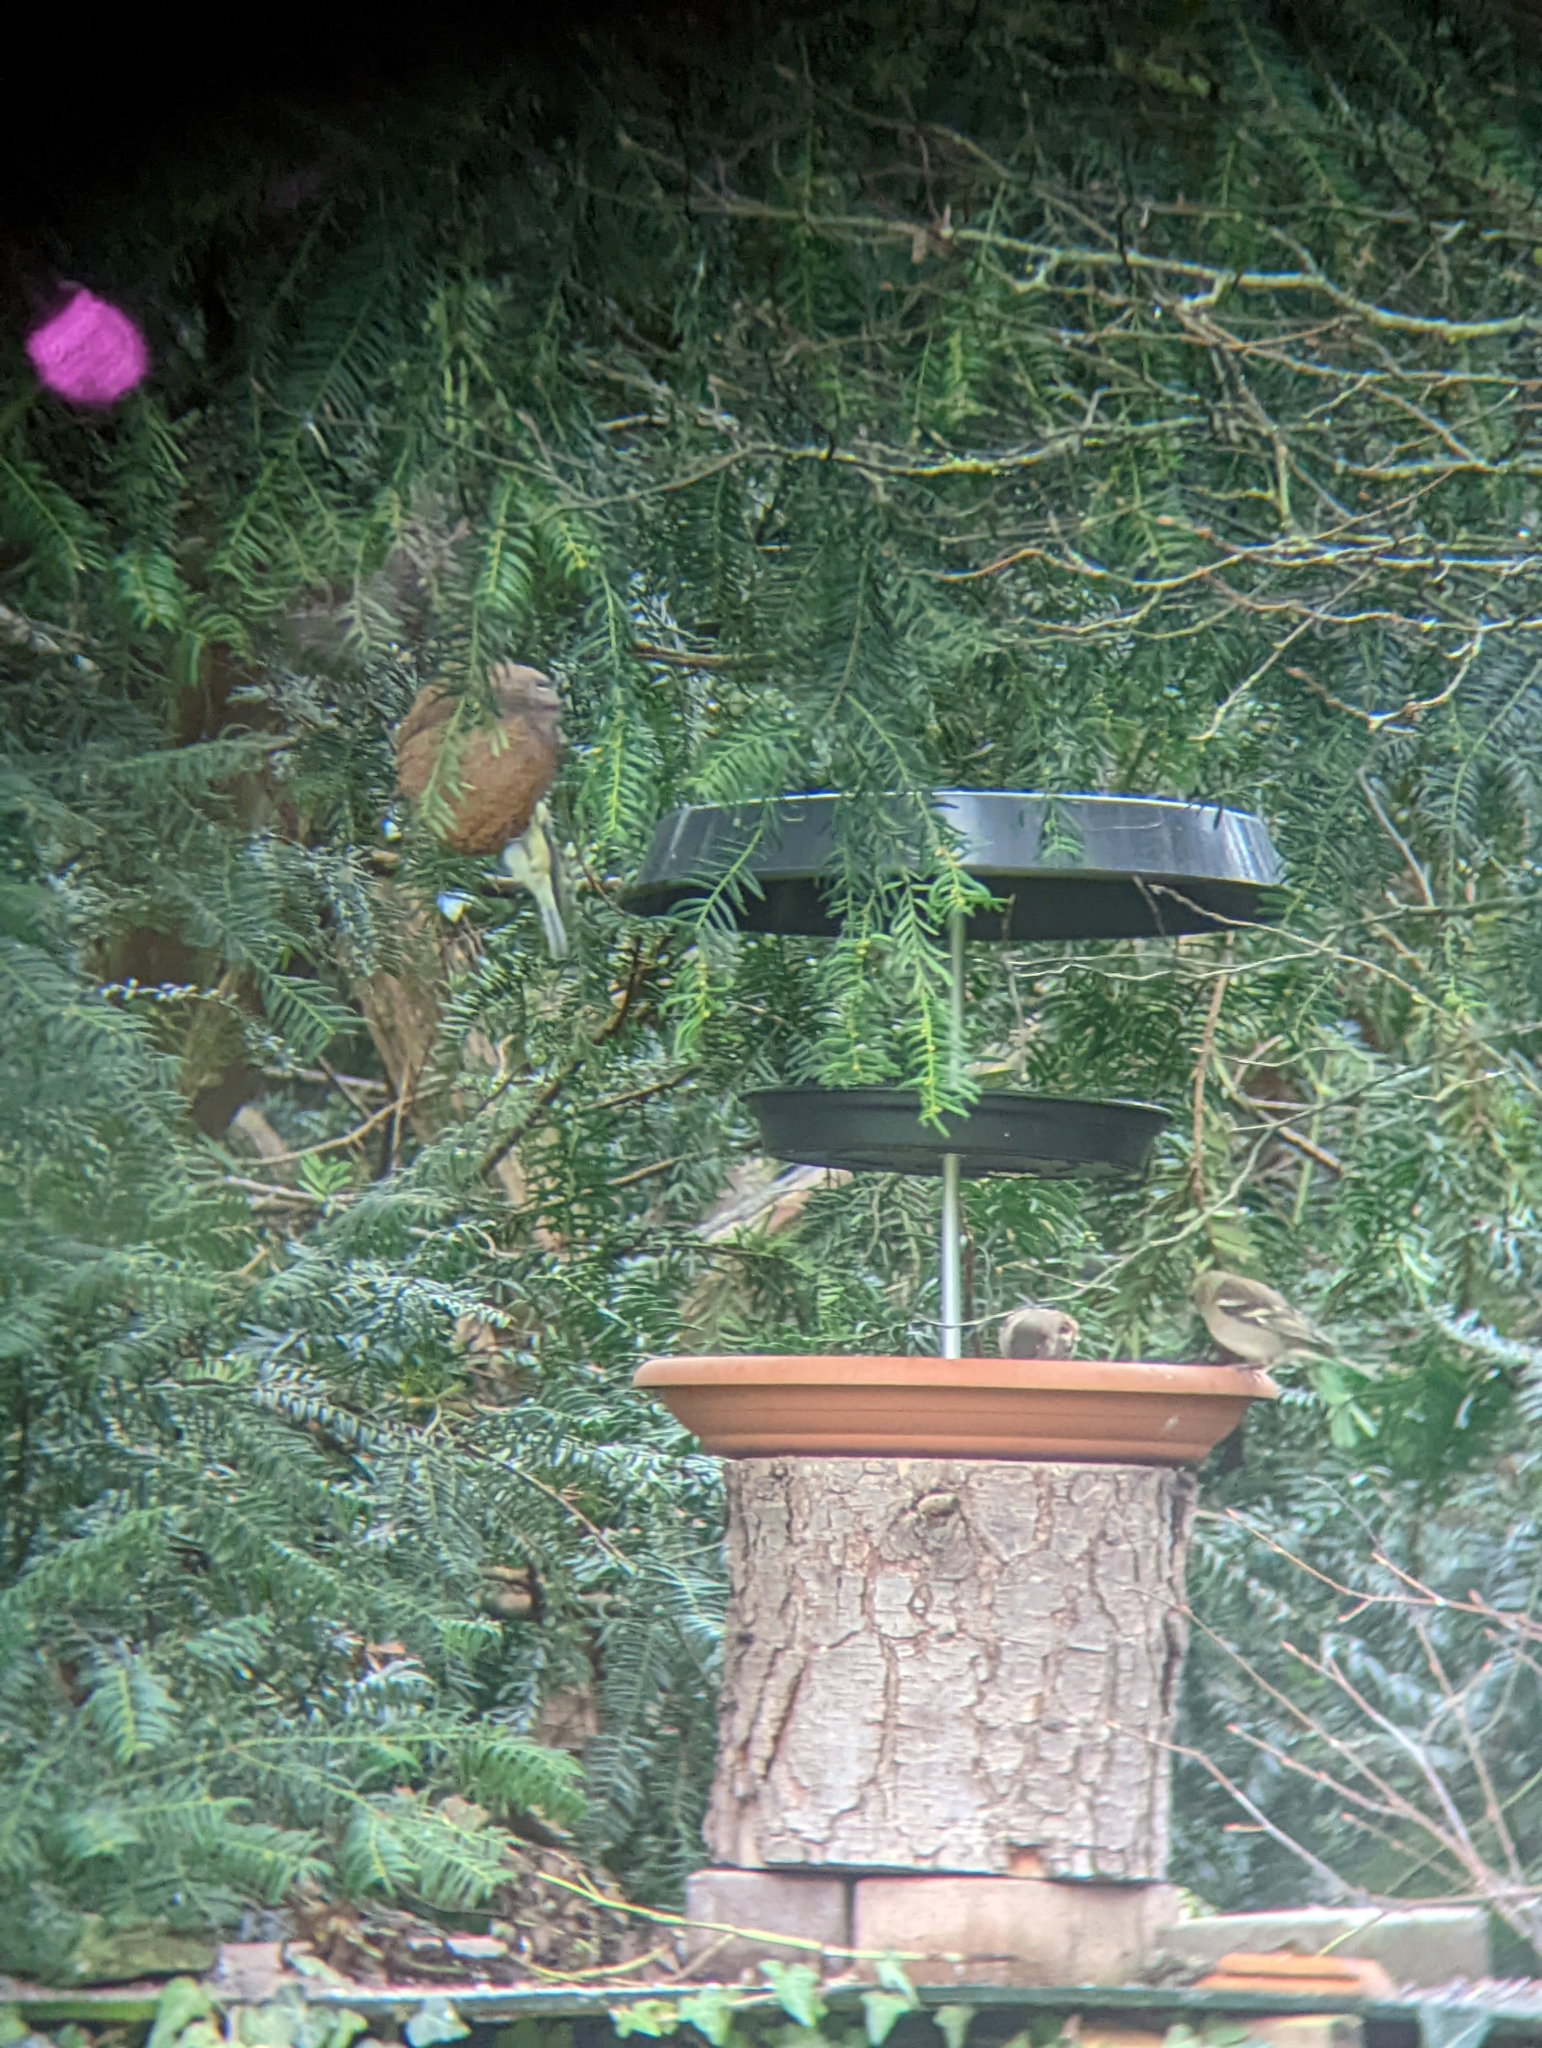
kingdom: Animalia
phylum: Chordata
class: Aves
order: Passeriformes
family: Fringillidae
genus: Fringilla
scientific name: Fringilla coelebs
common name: Common chaffinch
